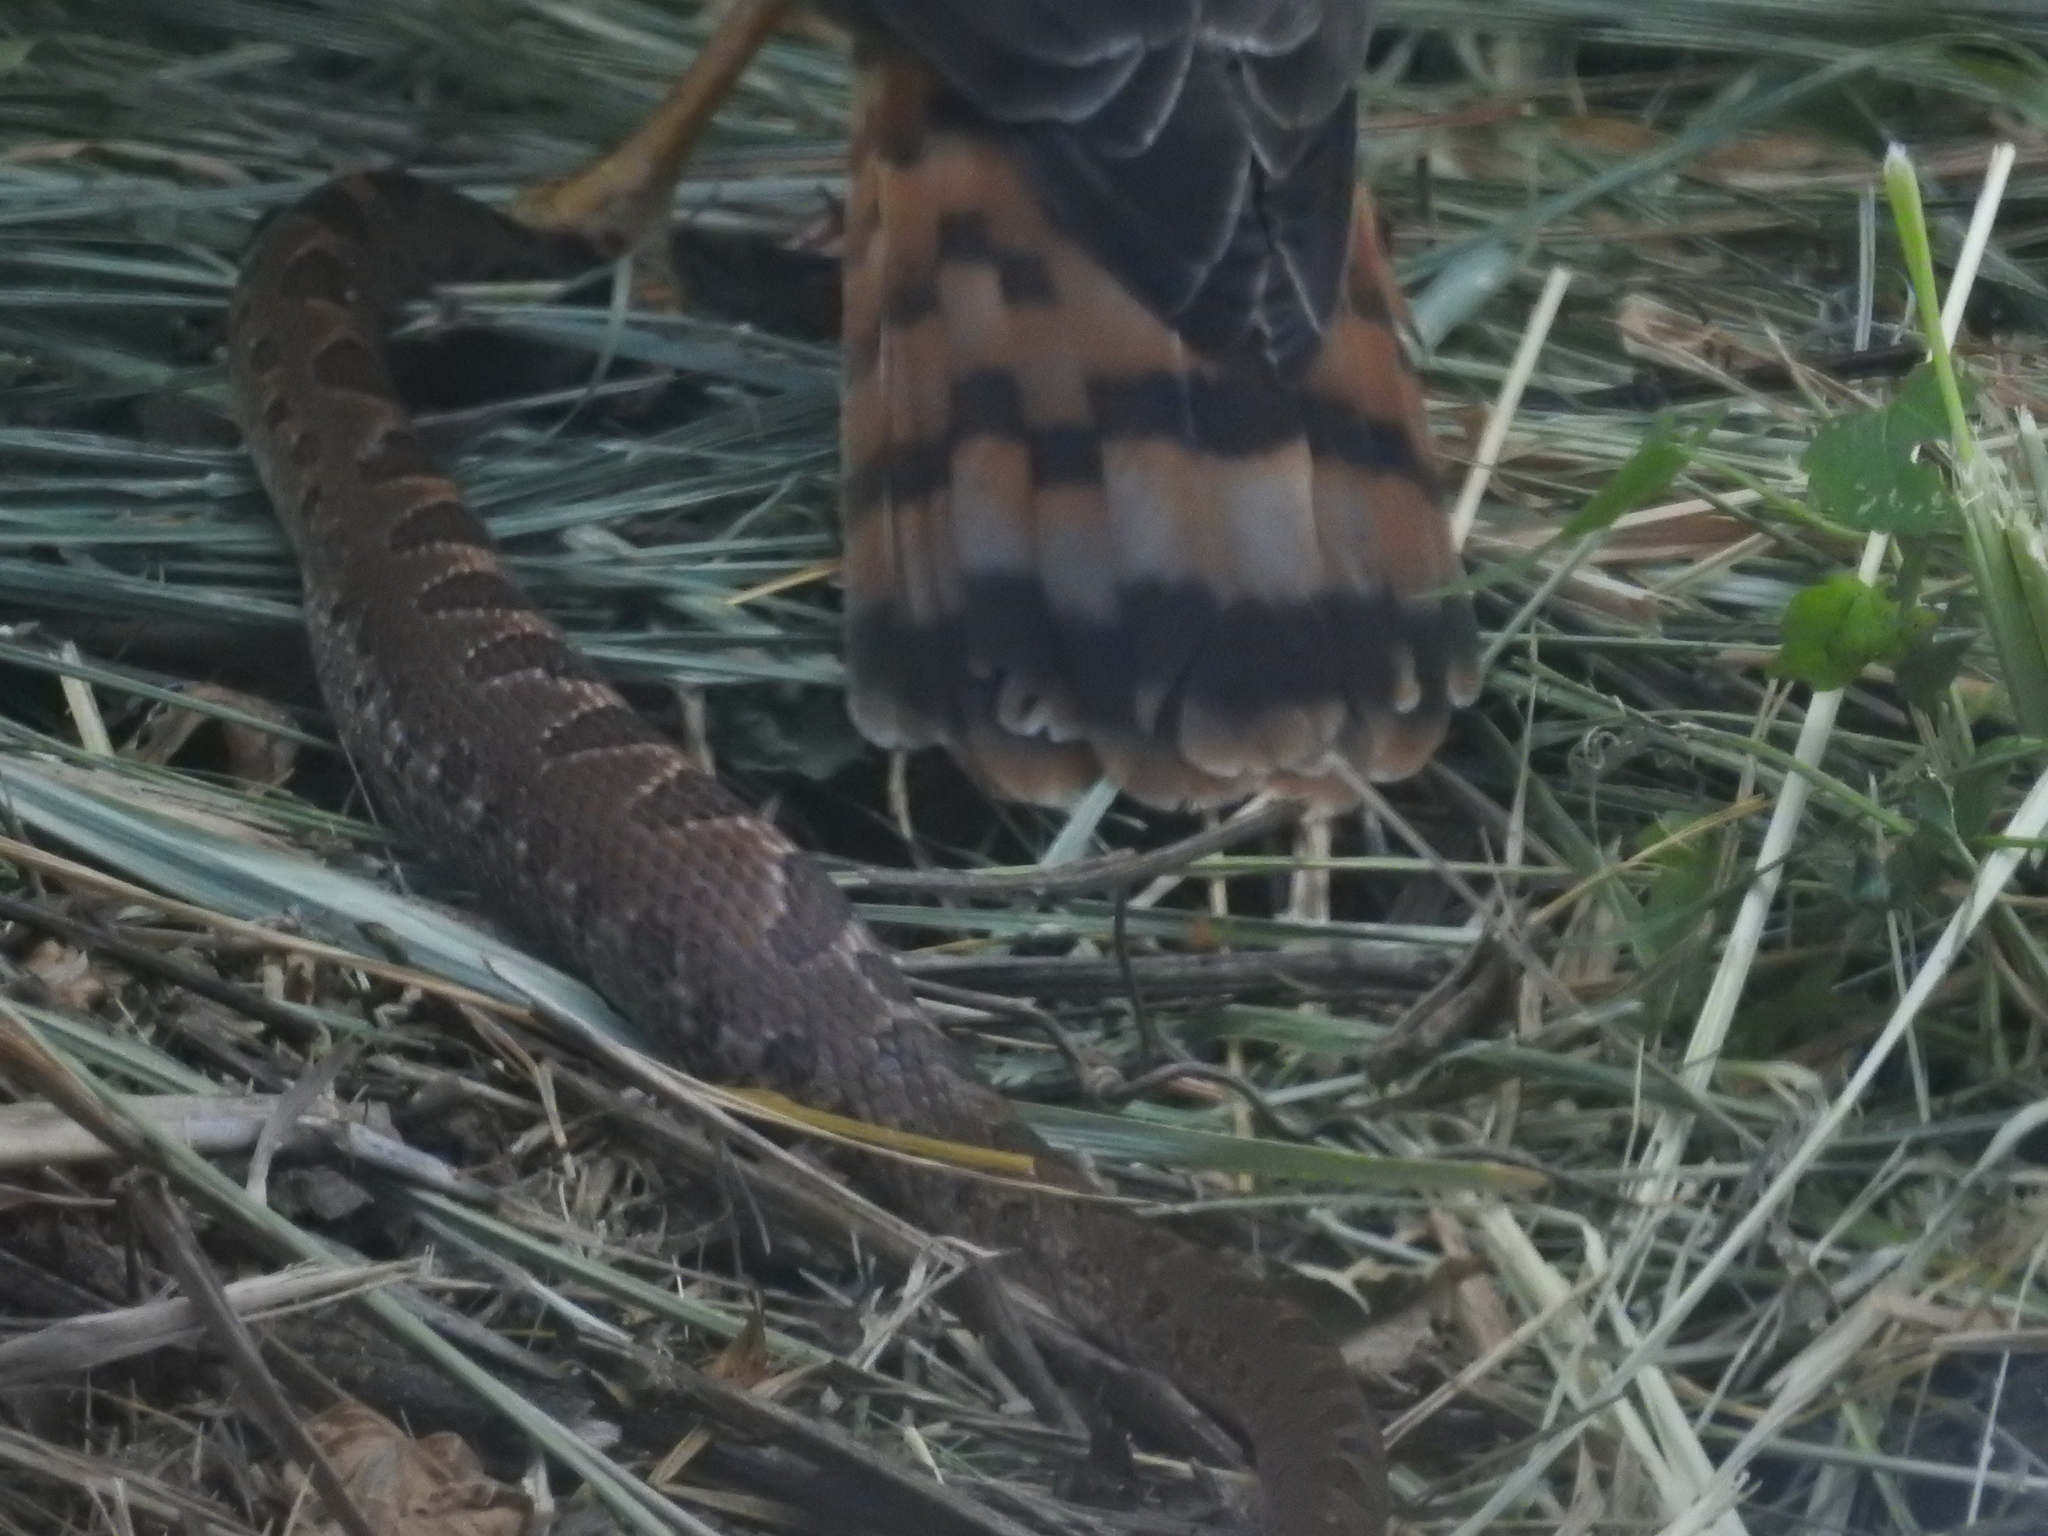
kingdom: Animalia
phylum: Chordata
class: Squamata
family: Colubridae
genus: Leptodeira
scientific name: Leptodeira rhombifera
